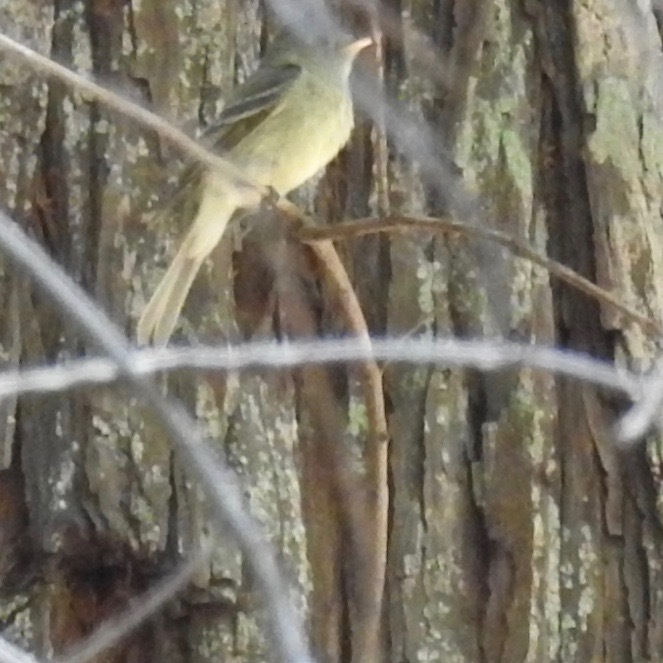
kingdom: Animalia
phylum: Chordata
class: Aves
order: Passeriformes
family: Tyrannidae
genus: Empidonax
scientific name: Empidonax difficilis
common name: Pacific-slope flycatcher
